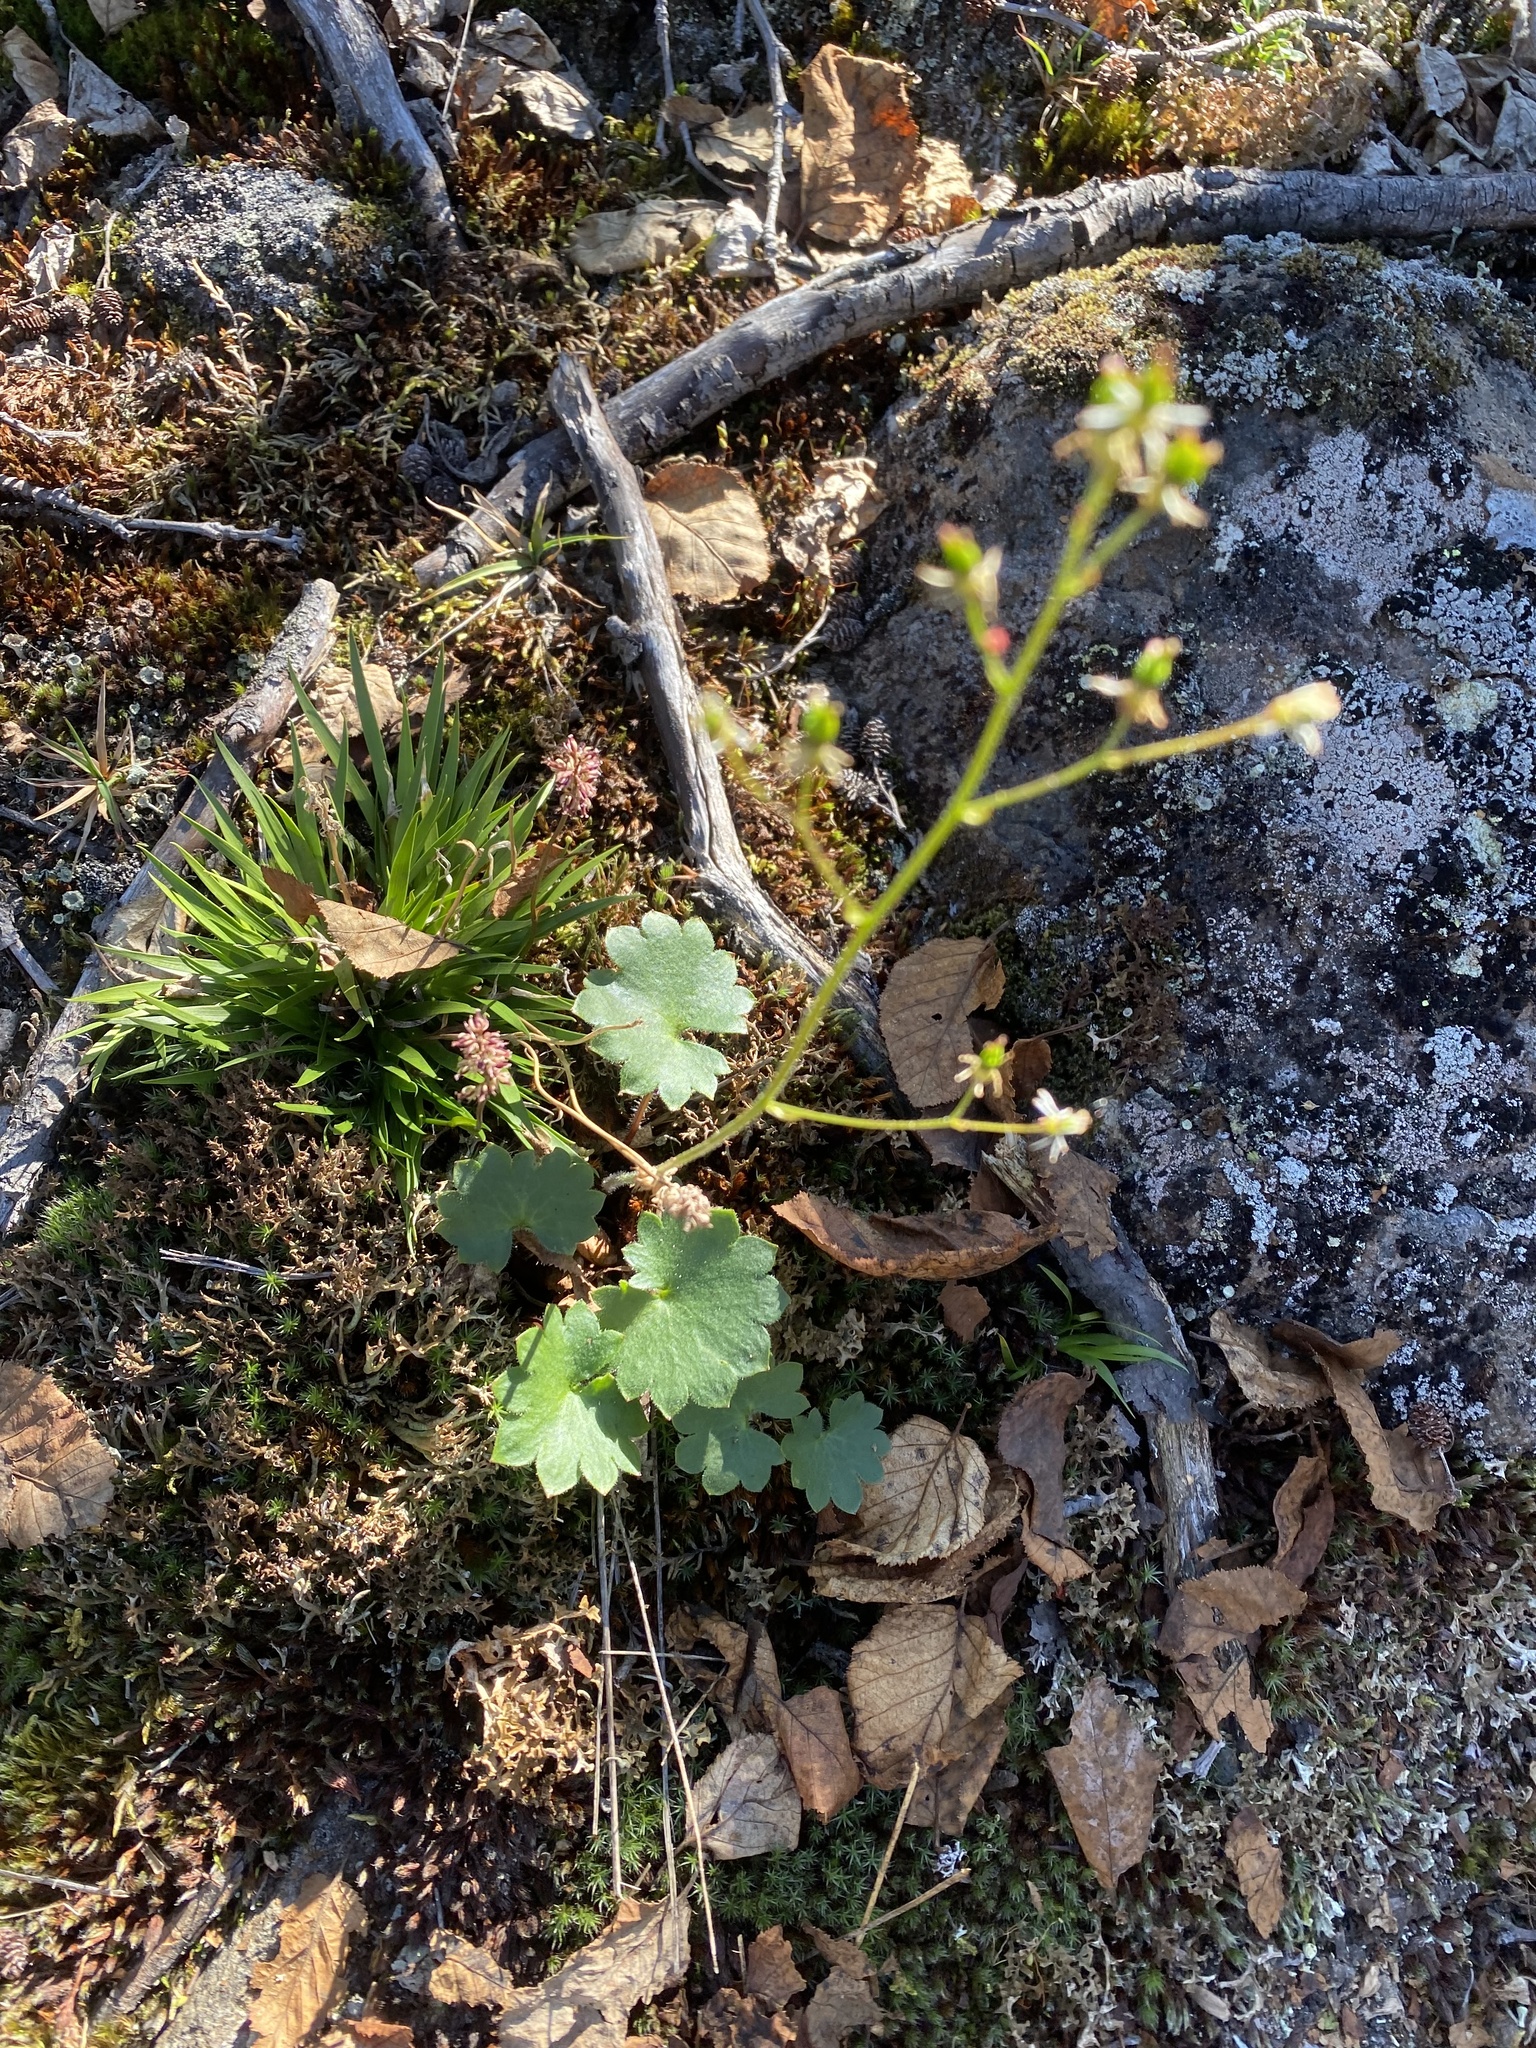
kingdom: Plantae
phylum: Tracheophyta
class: Magnoliopsida
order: Saxifragales
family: Saxifragaceae
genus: Micranthes
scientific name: Micranthes nelsoniana
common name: Nelson's saxifrage
